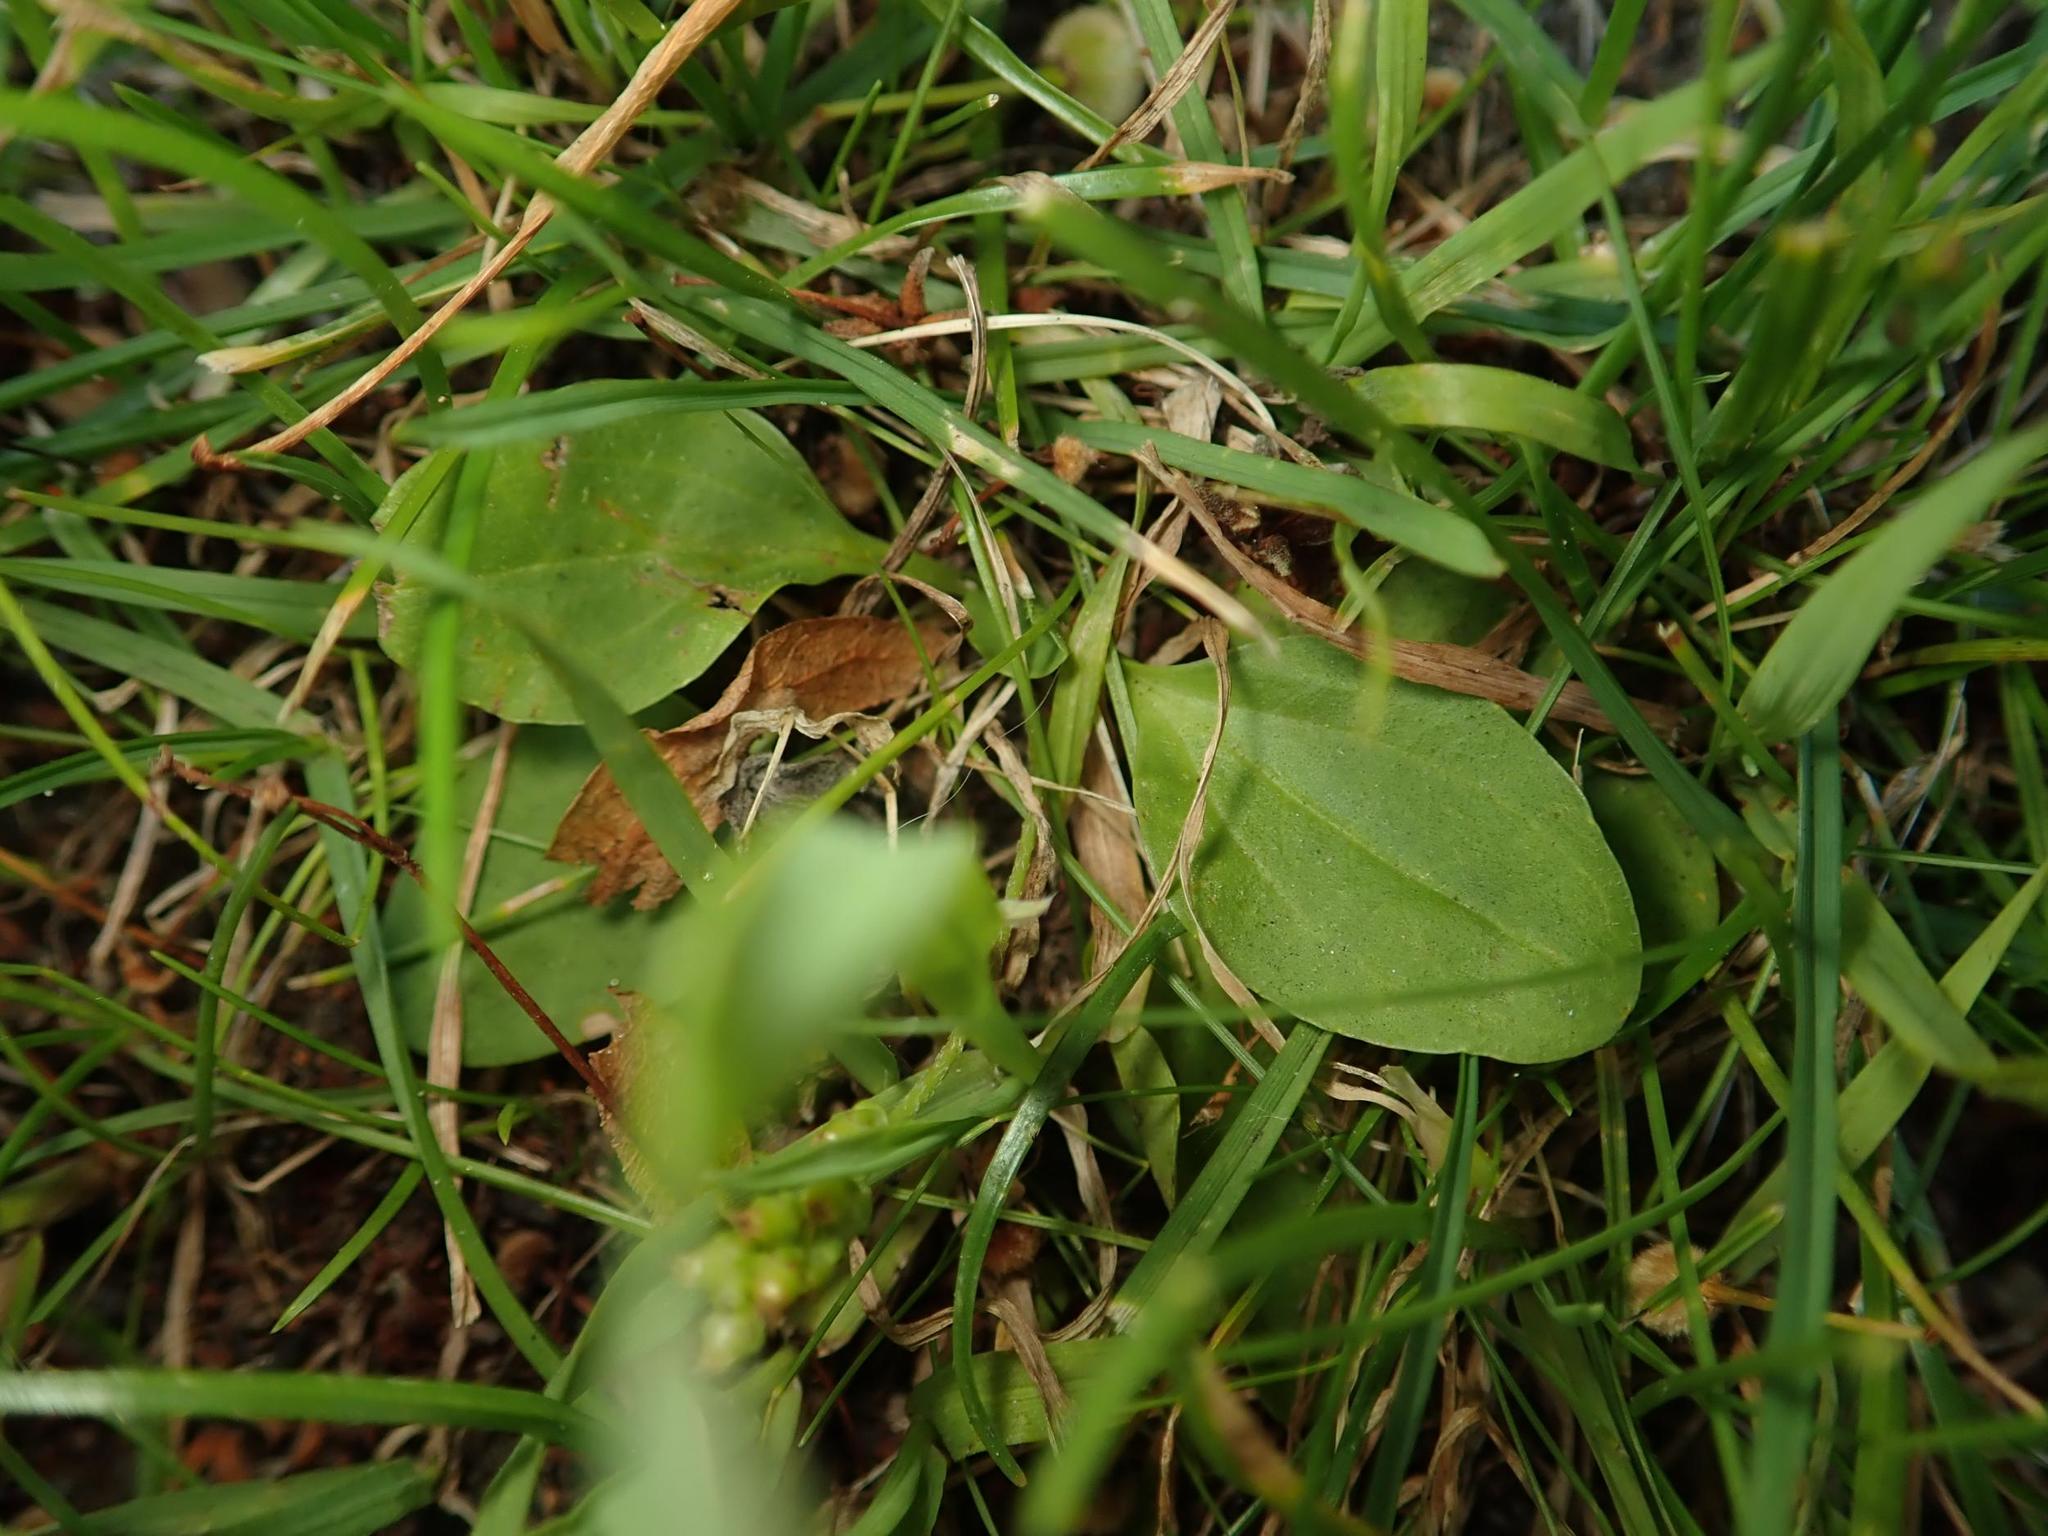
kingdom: Plantae
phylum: Tracheophyta
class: Magnoliopsida
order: Lamiales
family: Plantaginaceae
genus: Plantago
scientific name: Plantago major
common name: Common plantain
